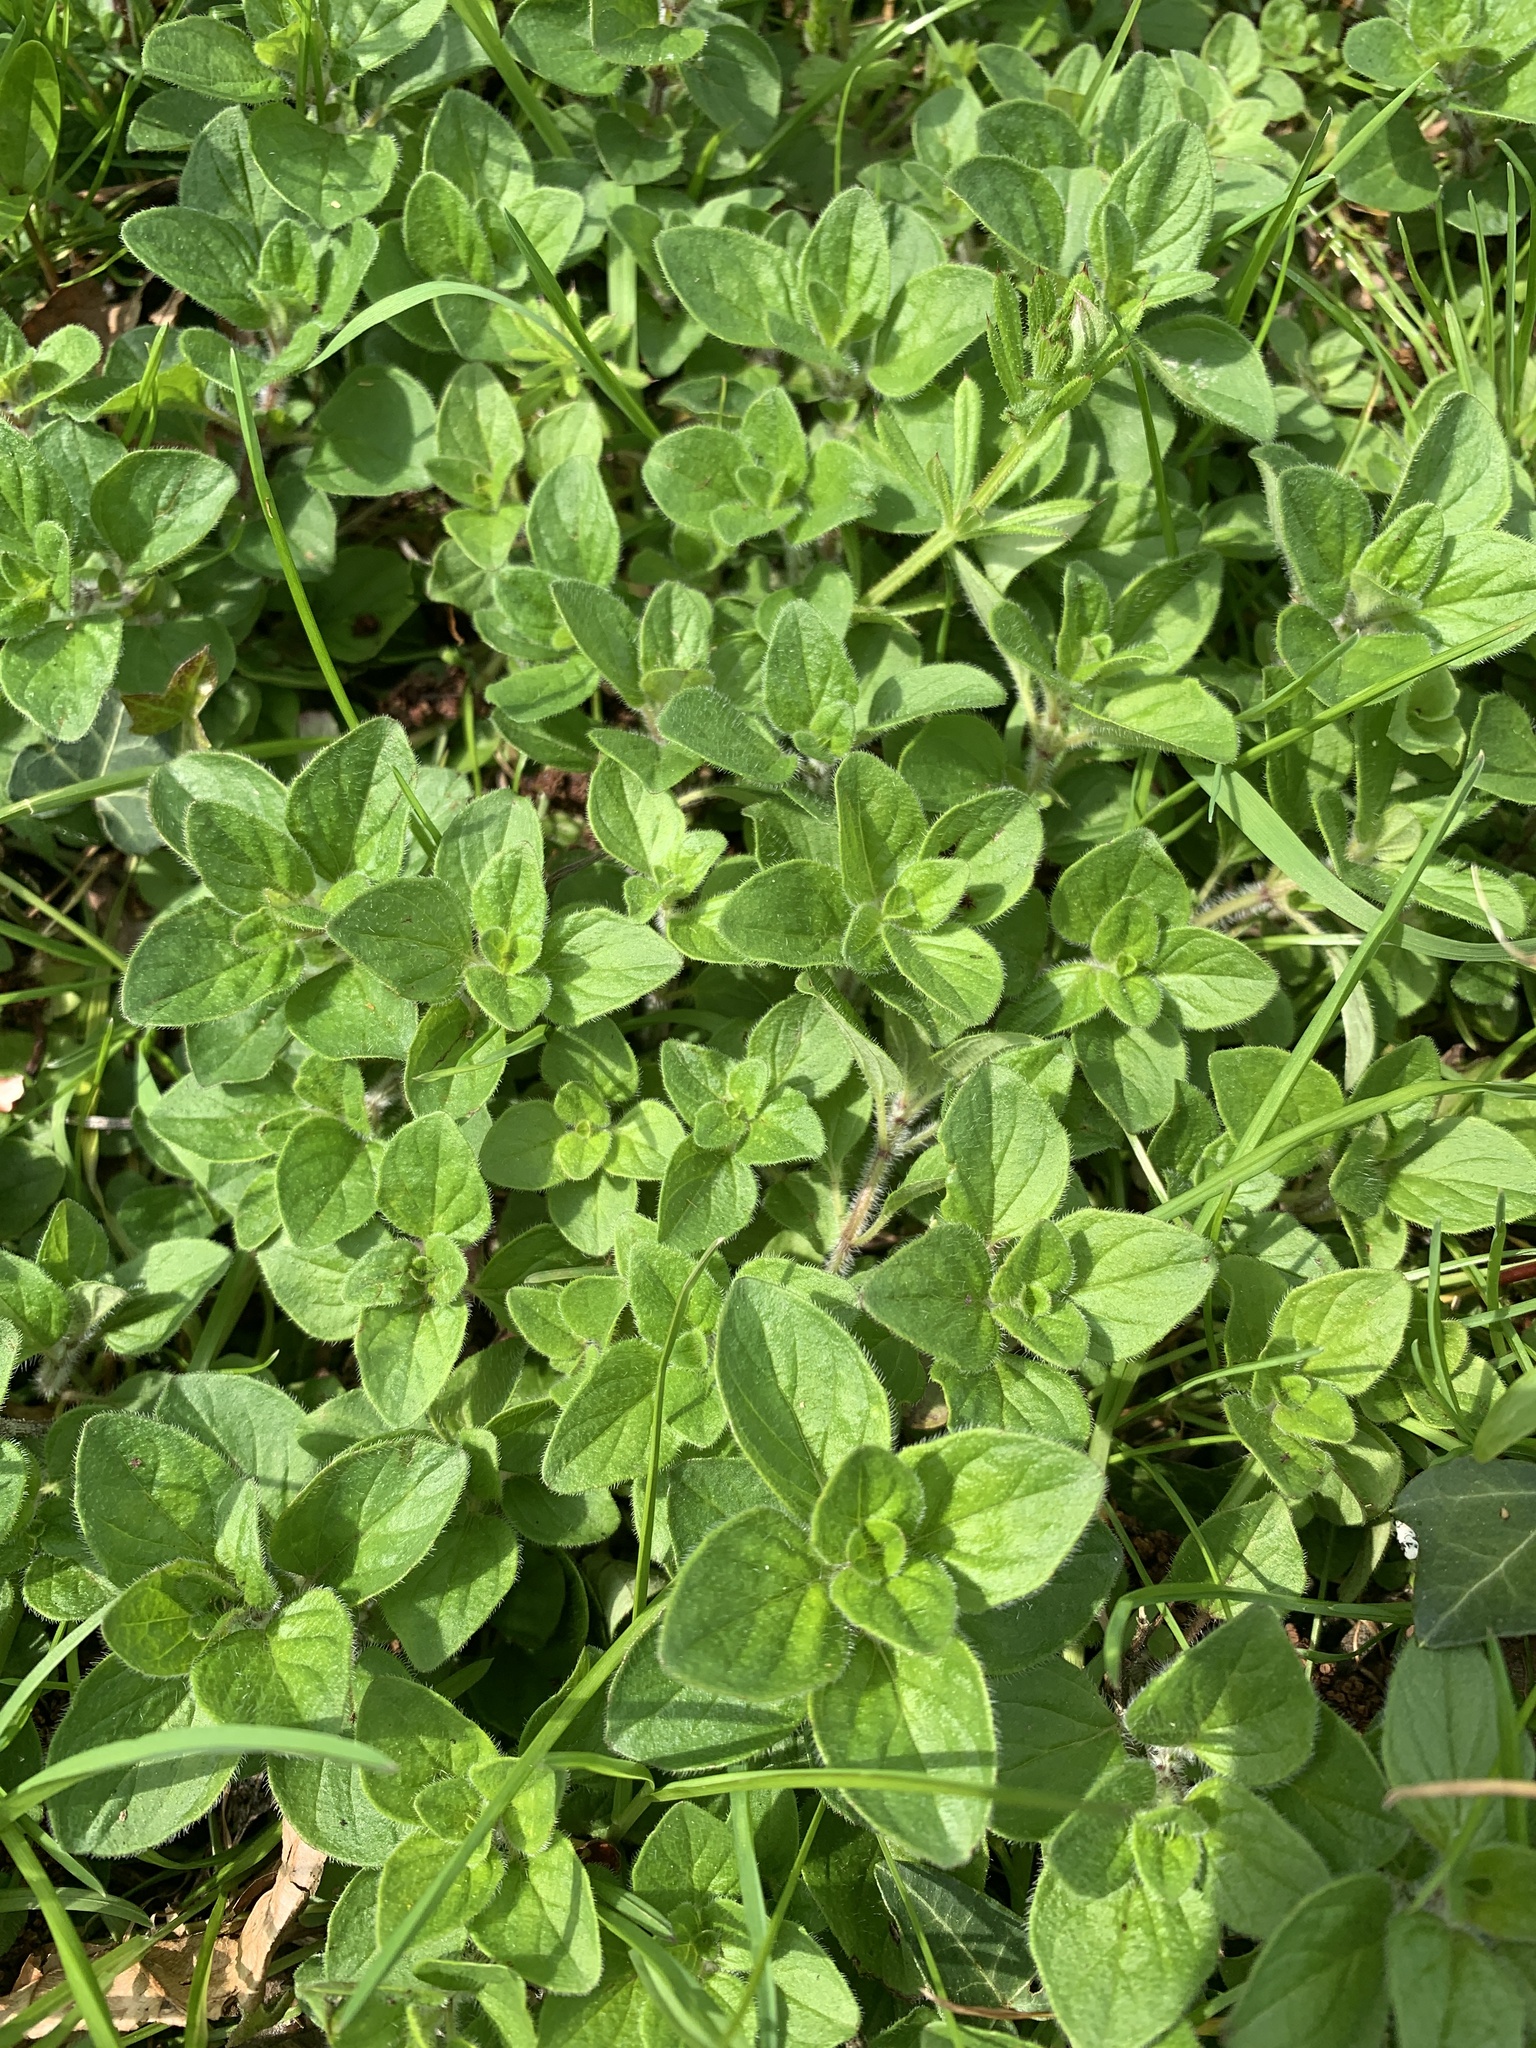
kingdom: Plantae
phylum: Tracheophyta
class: Magnoliopsida
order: Lamiales
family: Lamiaceae
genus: Origanum
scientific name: Origanum vulgare
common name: Wild marjoram
